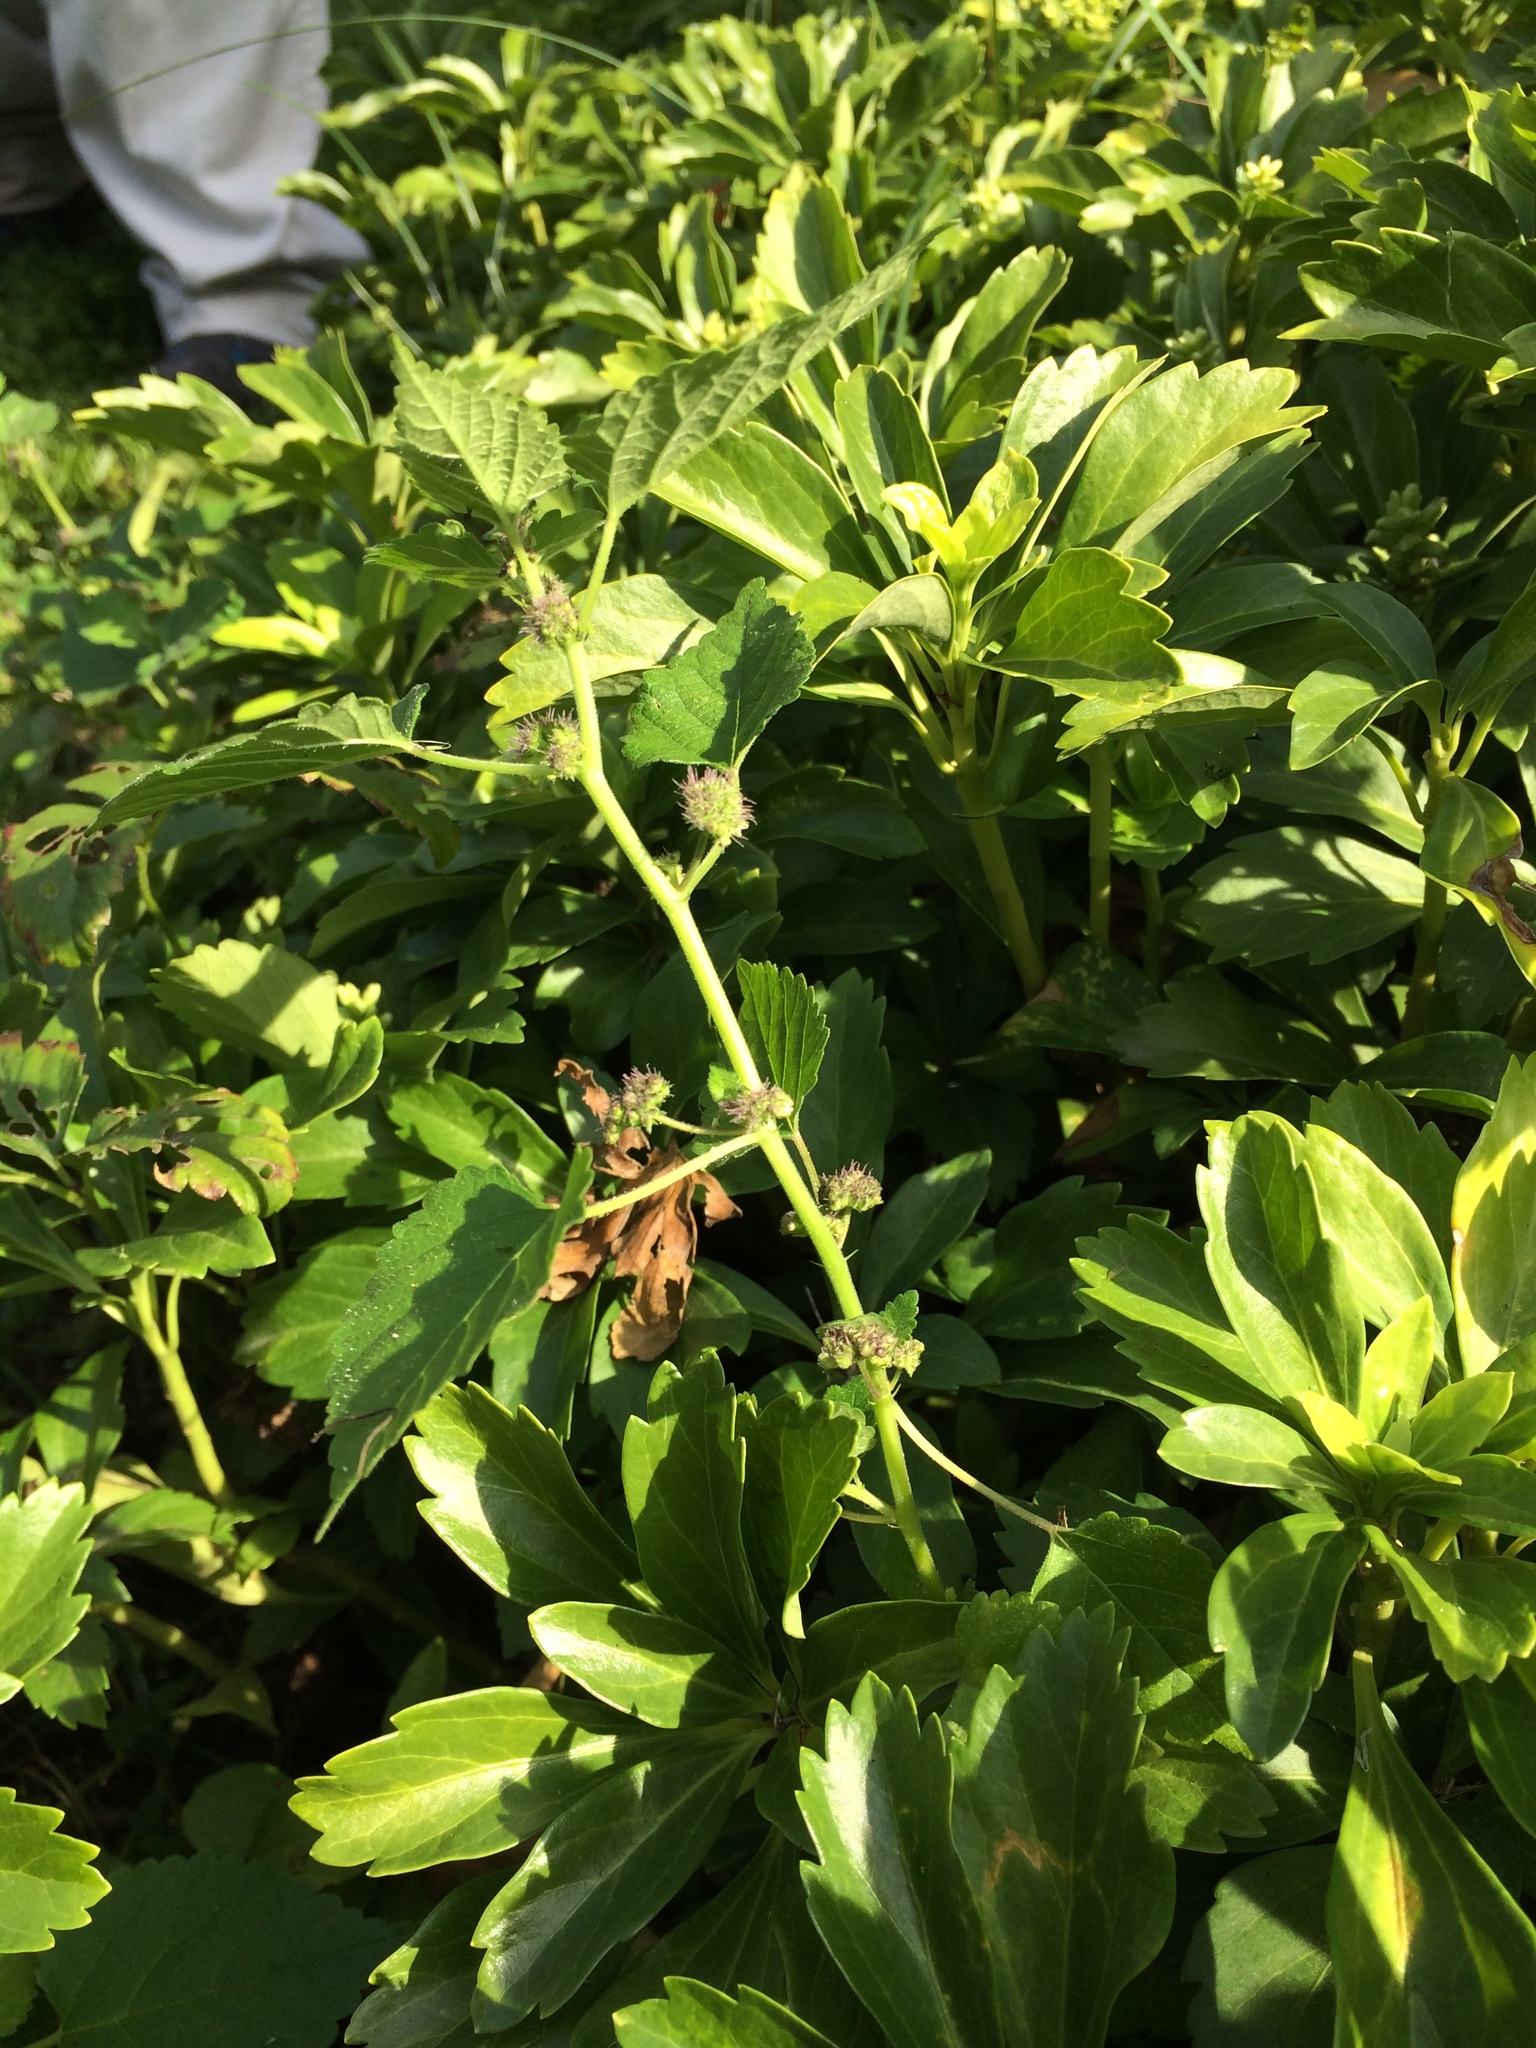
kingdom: Plantae
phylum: Tracheophyta
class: Magnoliopsida
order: Rosales
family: Moraceae
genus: Fatoua
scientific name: Fatoua villosa
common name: Hairy crabweed
